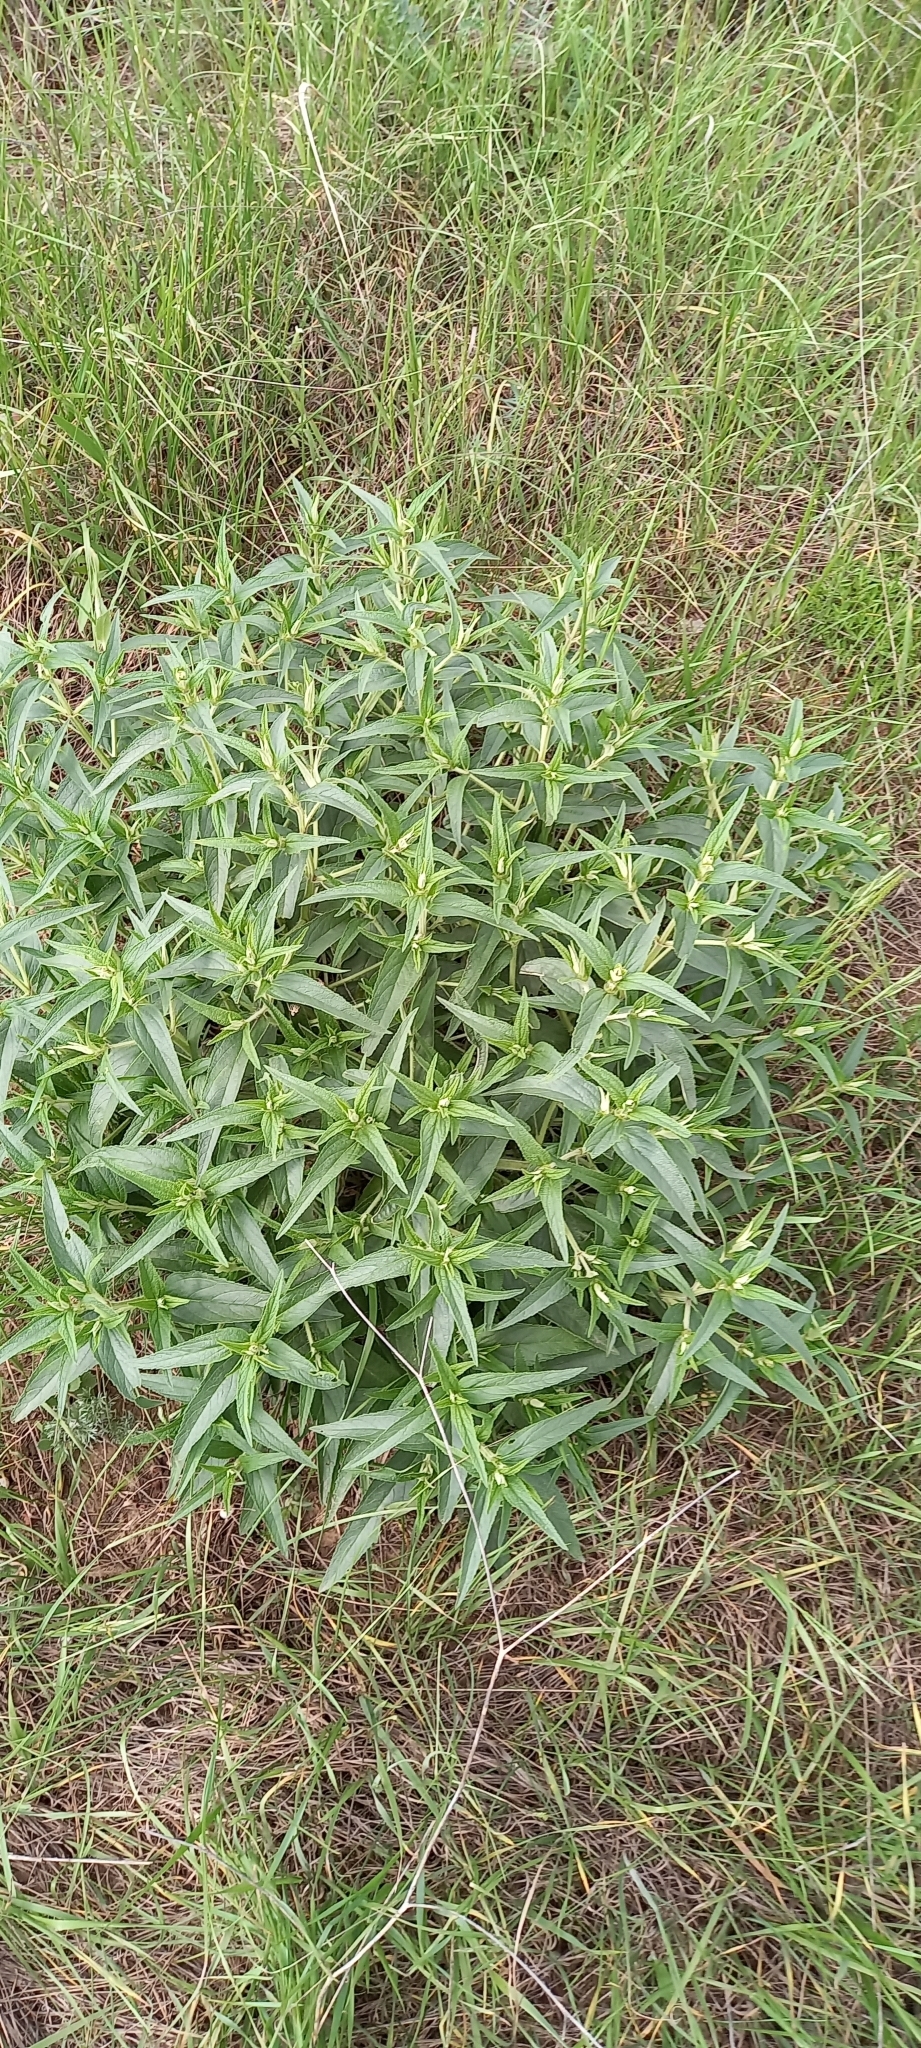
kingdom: Plantae
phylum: Tracheophyta
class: Magnoliopsida
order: Lamiales
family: Lamiaceae
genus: Phlomis
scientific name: Phlomis herba-venti
